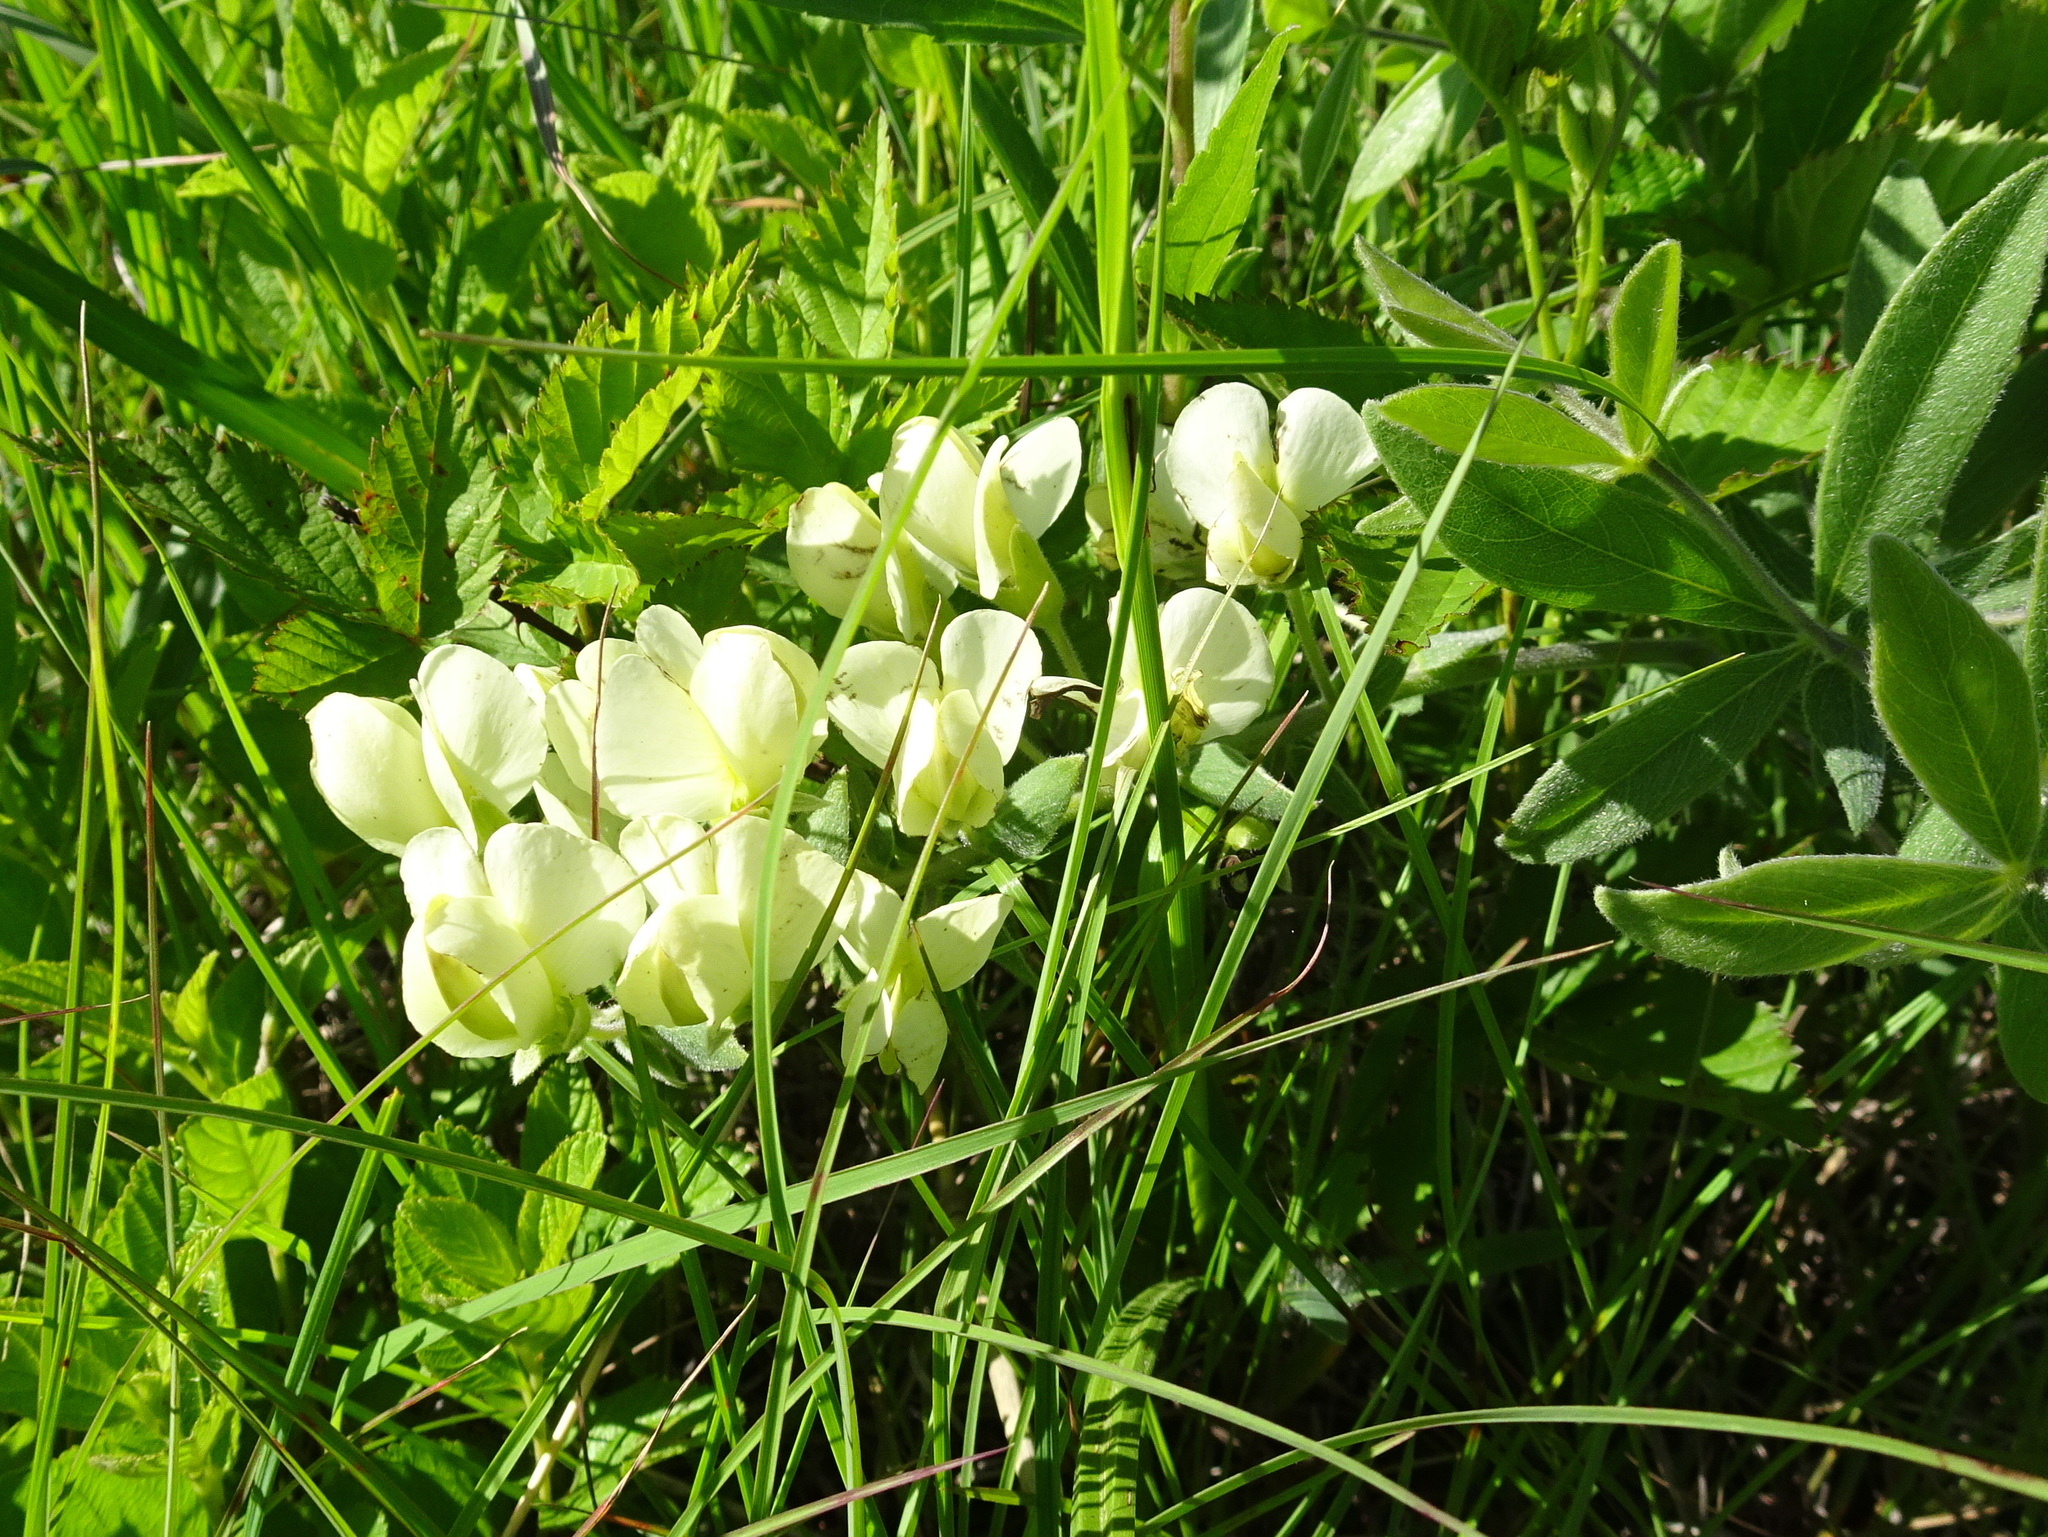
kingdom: Plantae
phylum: Tracheophyta
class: Magnoliopsida
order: Fabales
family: Fabaceae
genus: Baptisia
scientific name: Baptisia bracteata
